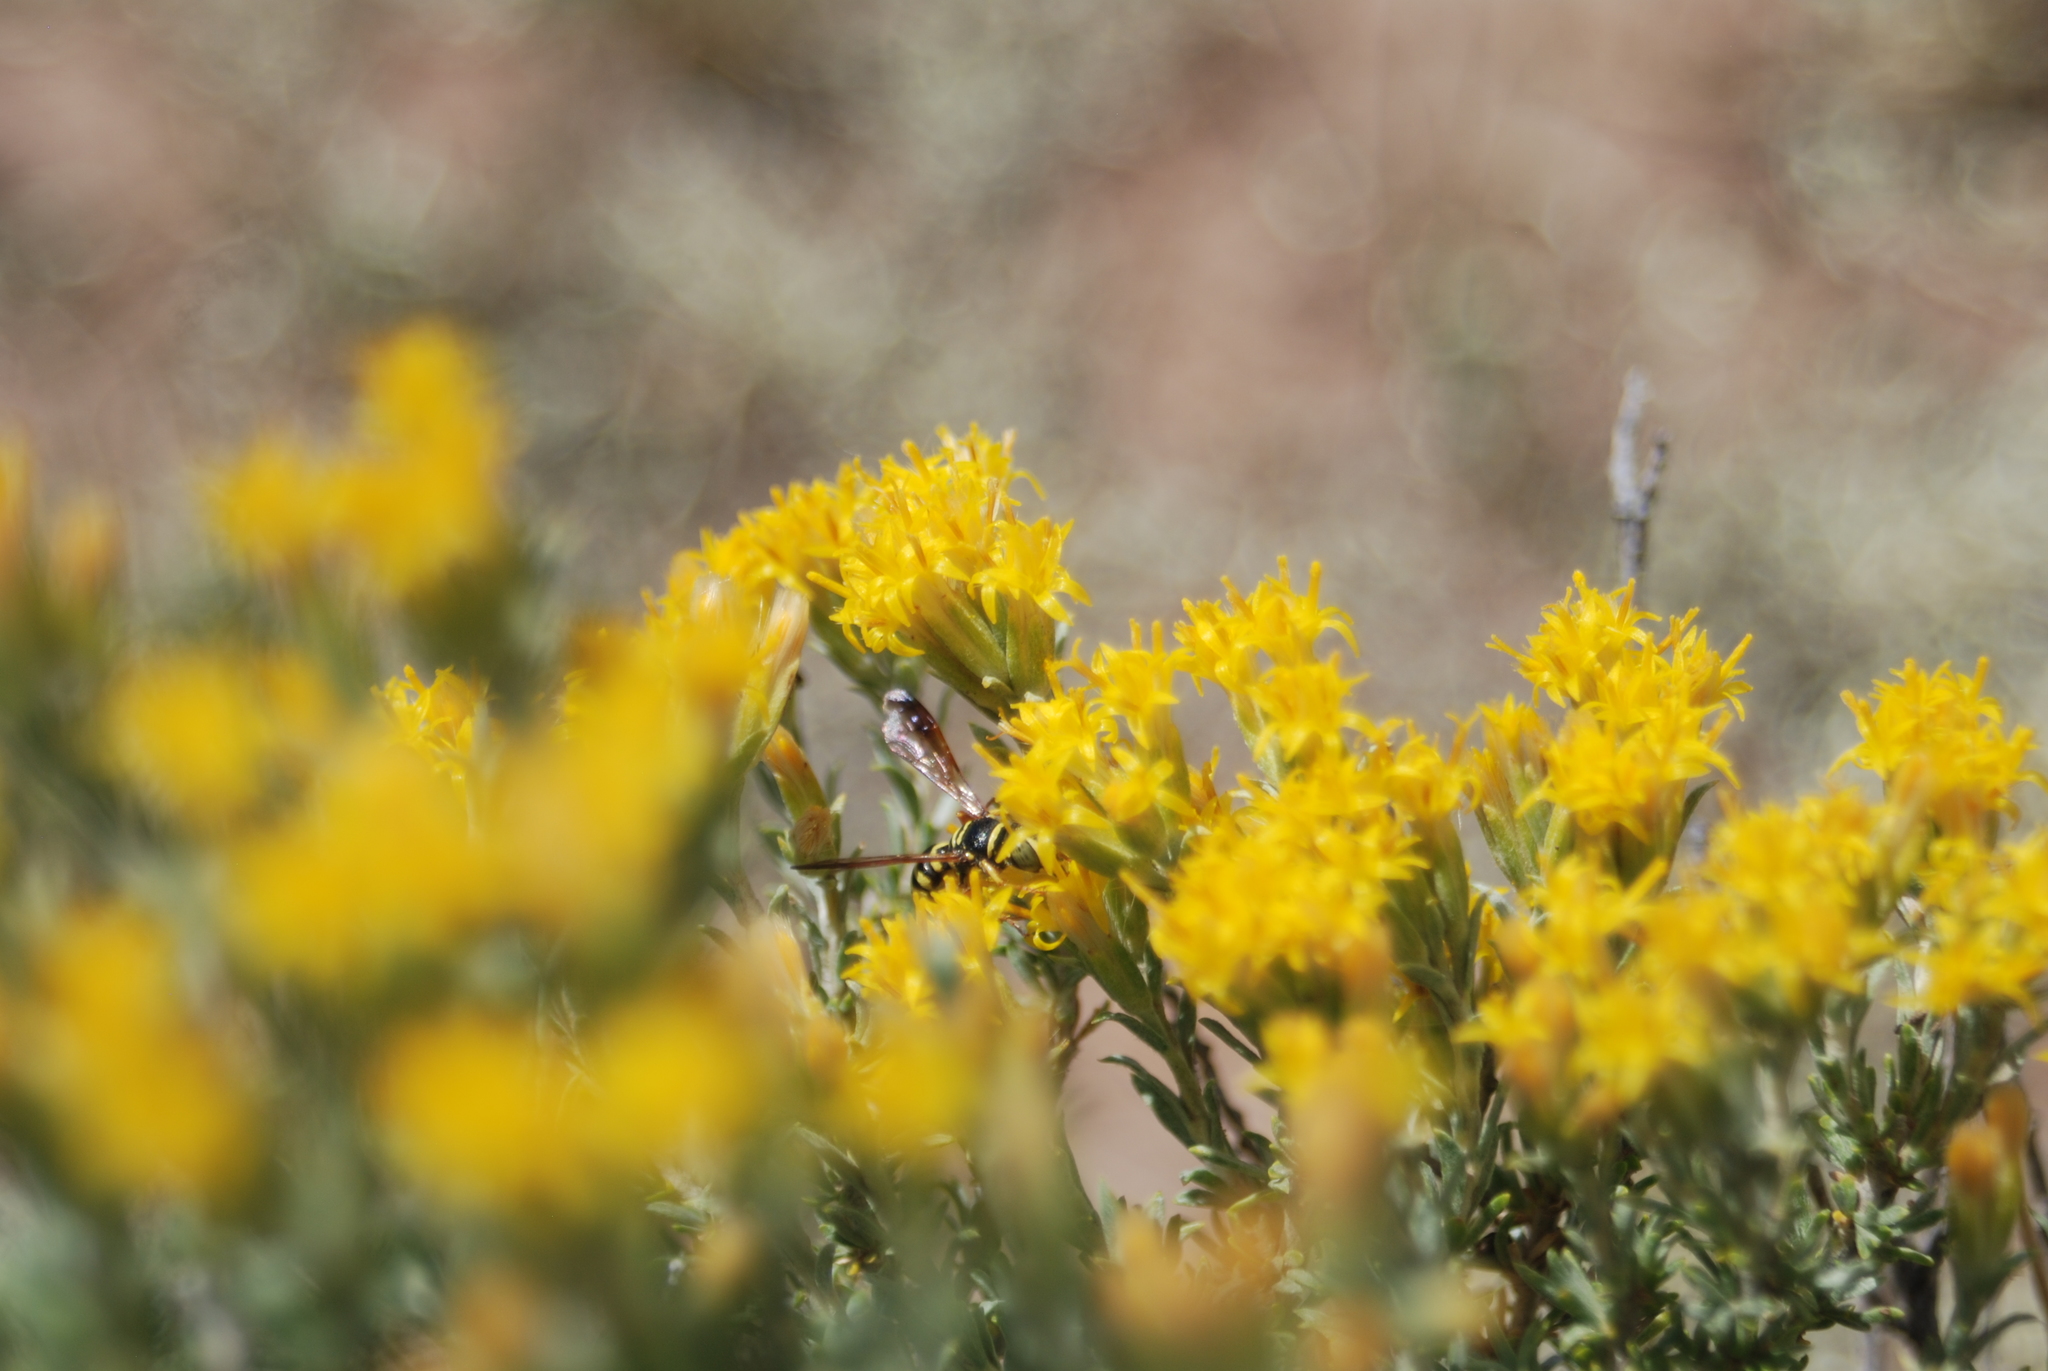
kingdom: Animalia
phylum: Arthropoda
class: Insecta
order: Hymenoptera
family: Crabronidae
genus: Eucerceris
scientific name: Eucerceris
